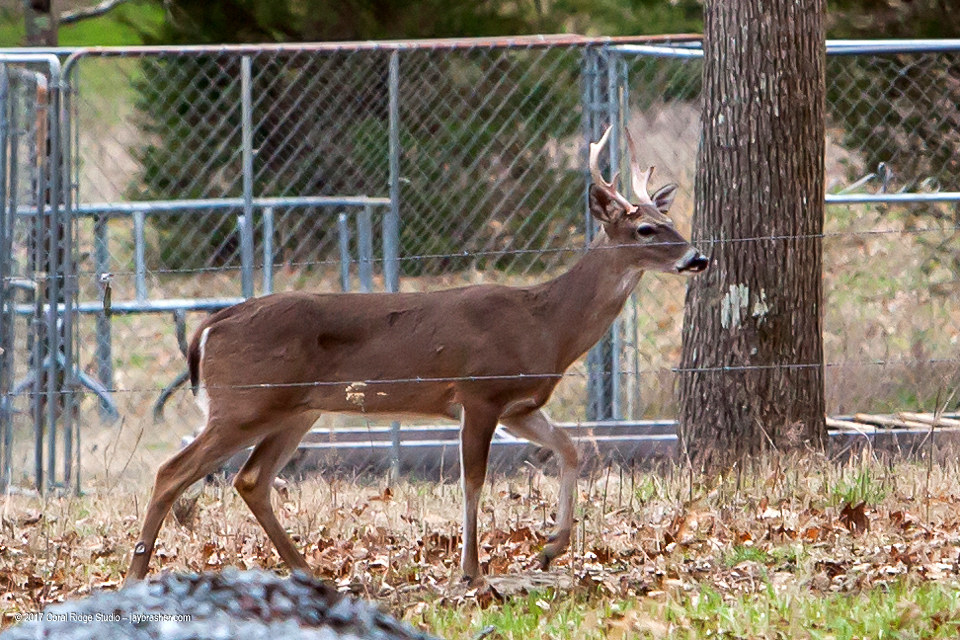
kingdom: Animalia
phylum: Chordata
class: Mammalia
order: Artiodactyla
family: Cervidae
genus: Odocoileus
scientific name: Odocoileus virginianus
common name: White-tailed deer
